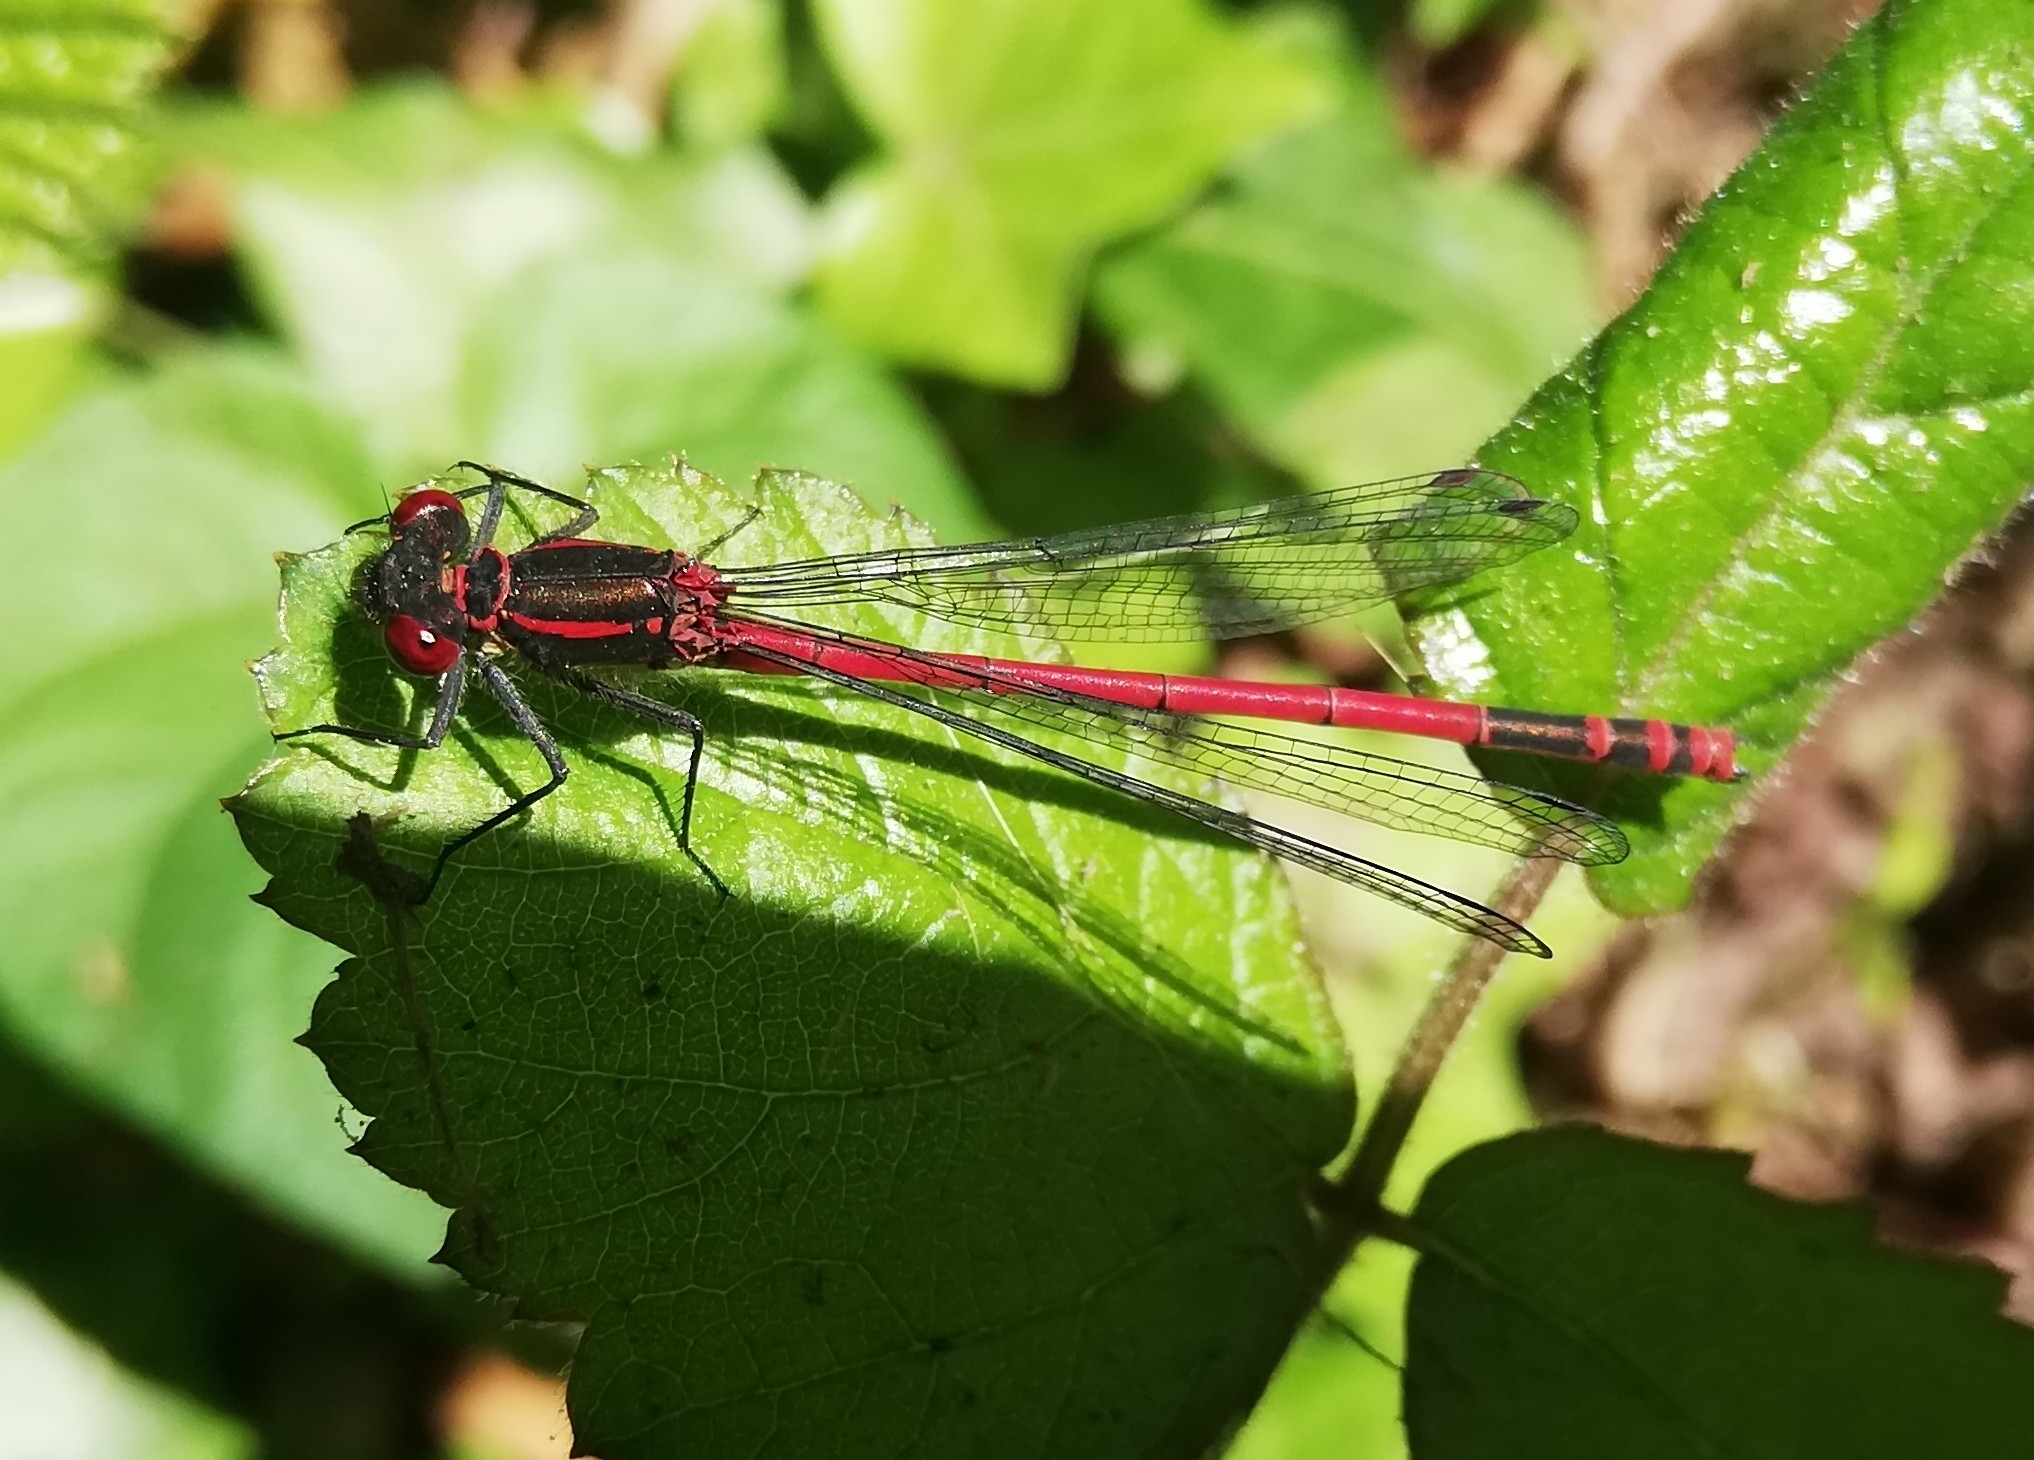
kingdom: Animalia
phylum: Arthropoda
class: Insecta
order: Odonata
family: Coenagrionidae
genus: Pyrrhosoma
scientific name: Pyrrhosoma nymphula
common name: Large red damsel
